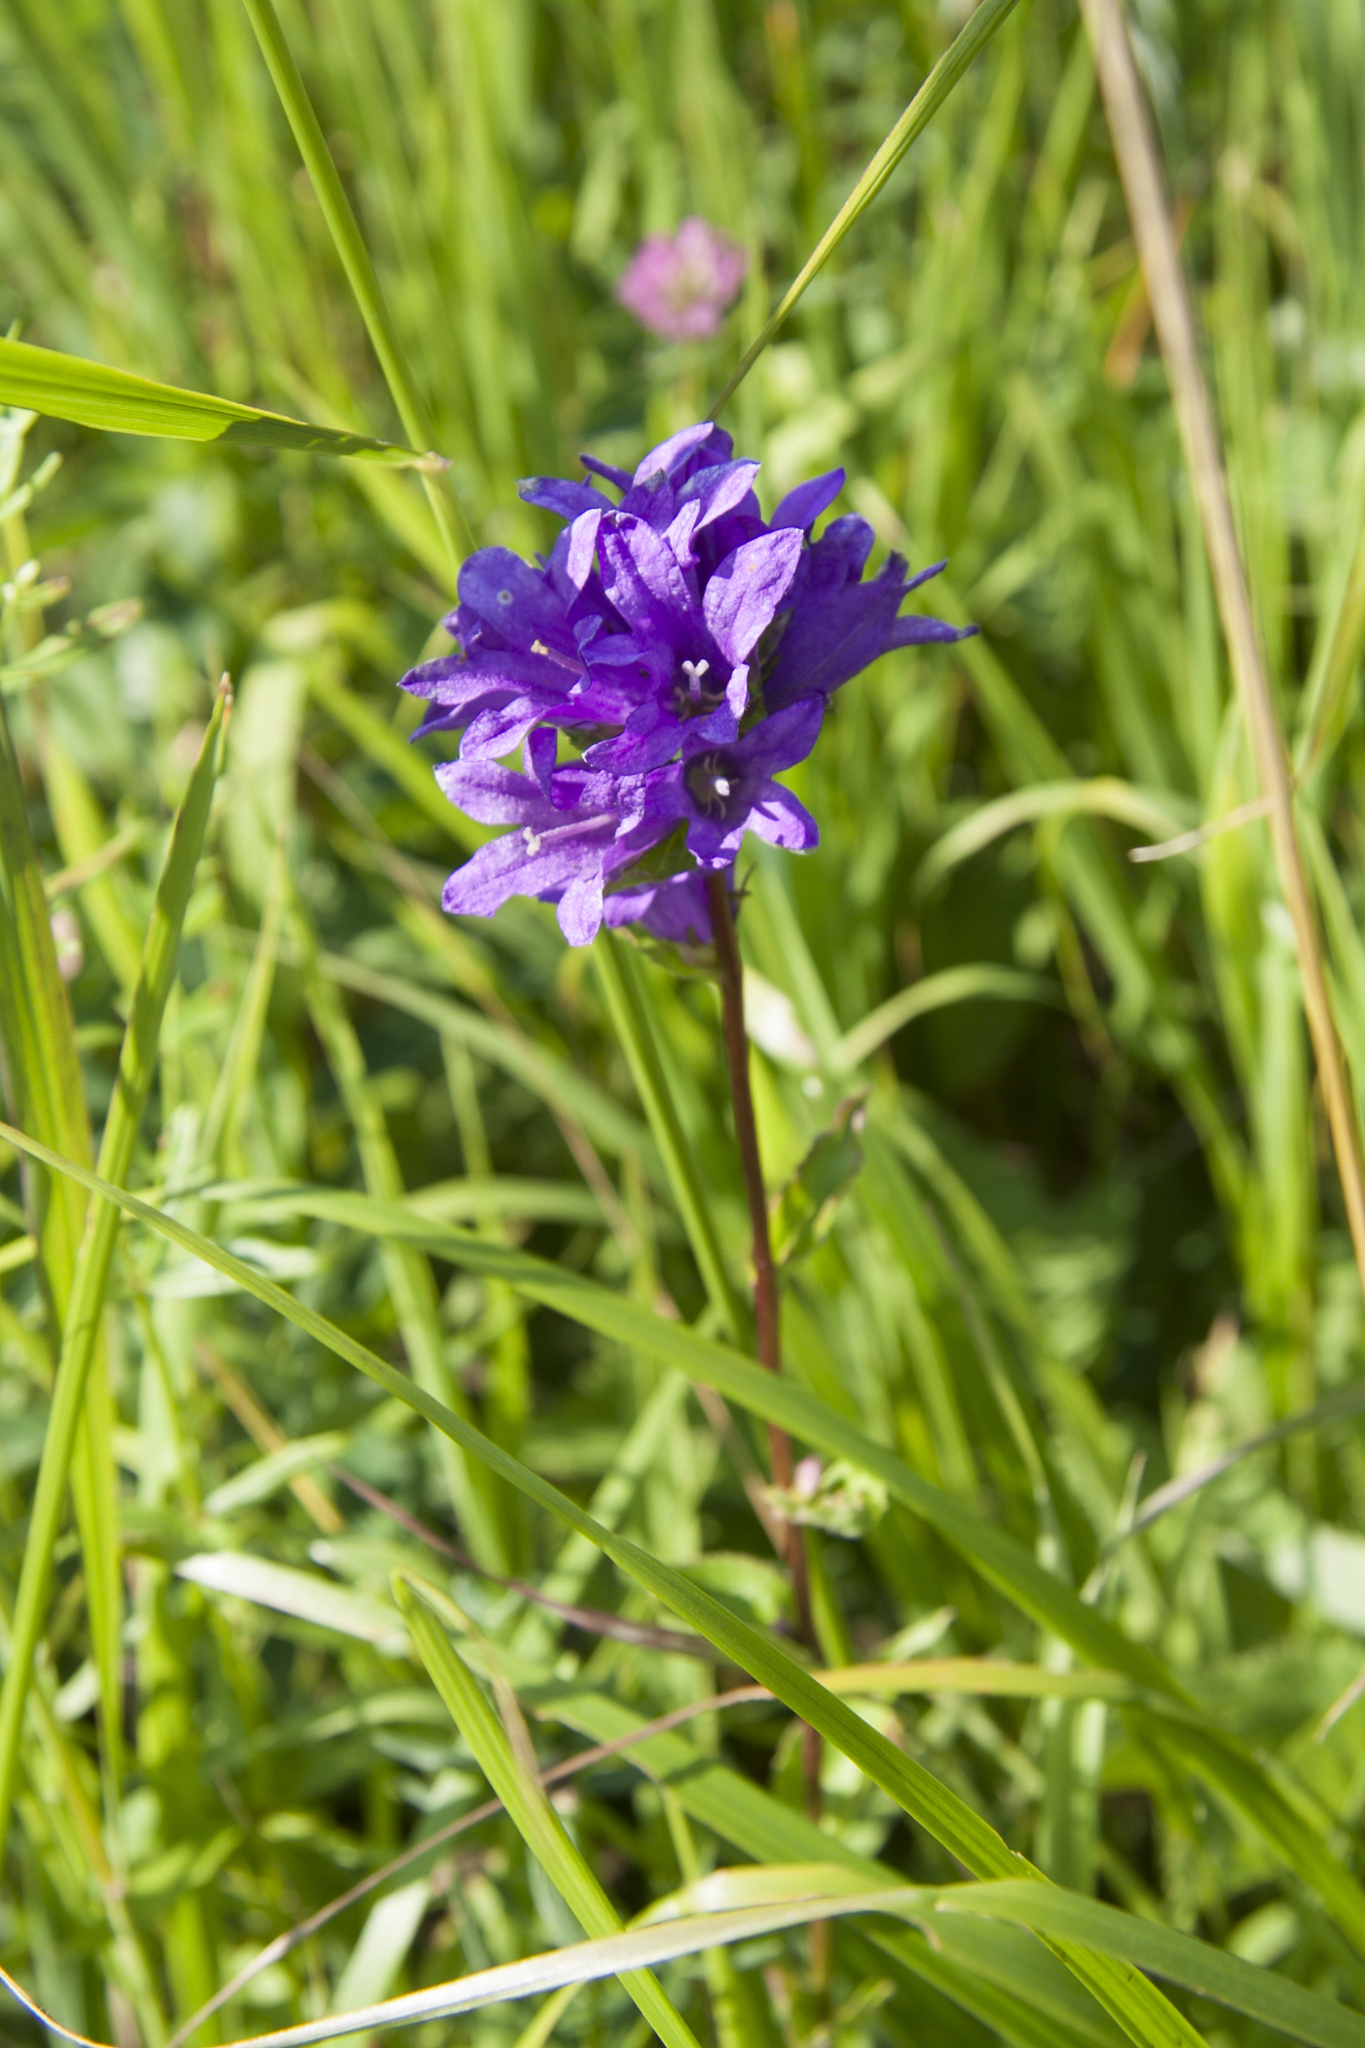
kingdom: Plantae
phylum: Tracheophyta
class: Magnoliopsida
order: Asterales
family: Campanulaceae
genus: Campanula
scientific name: Campanula glomerata
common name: Clustered bellflower
